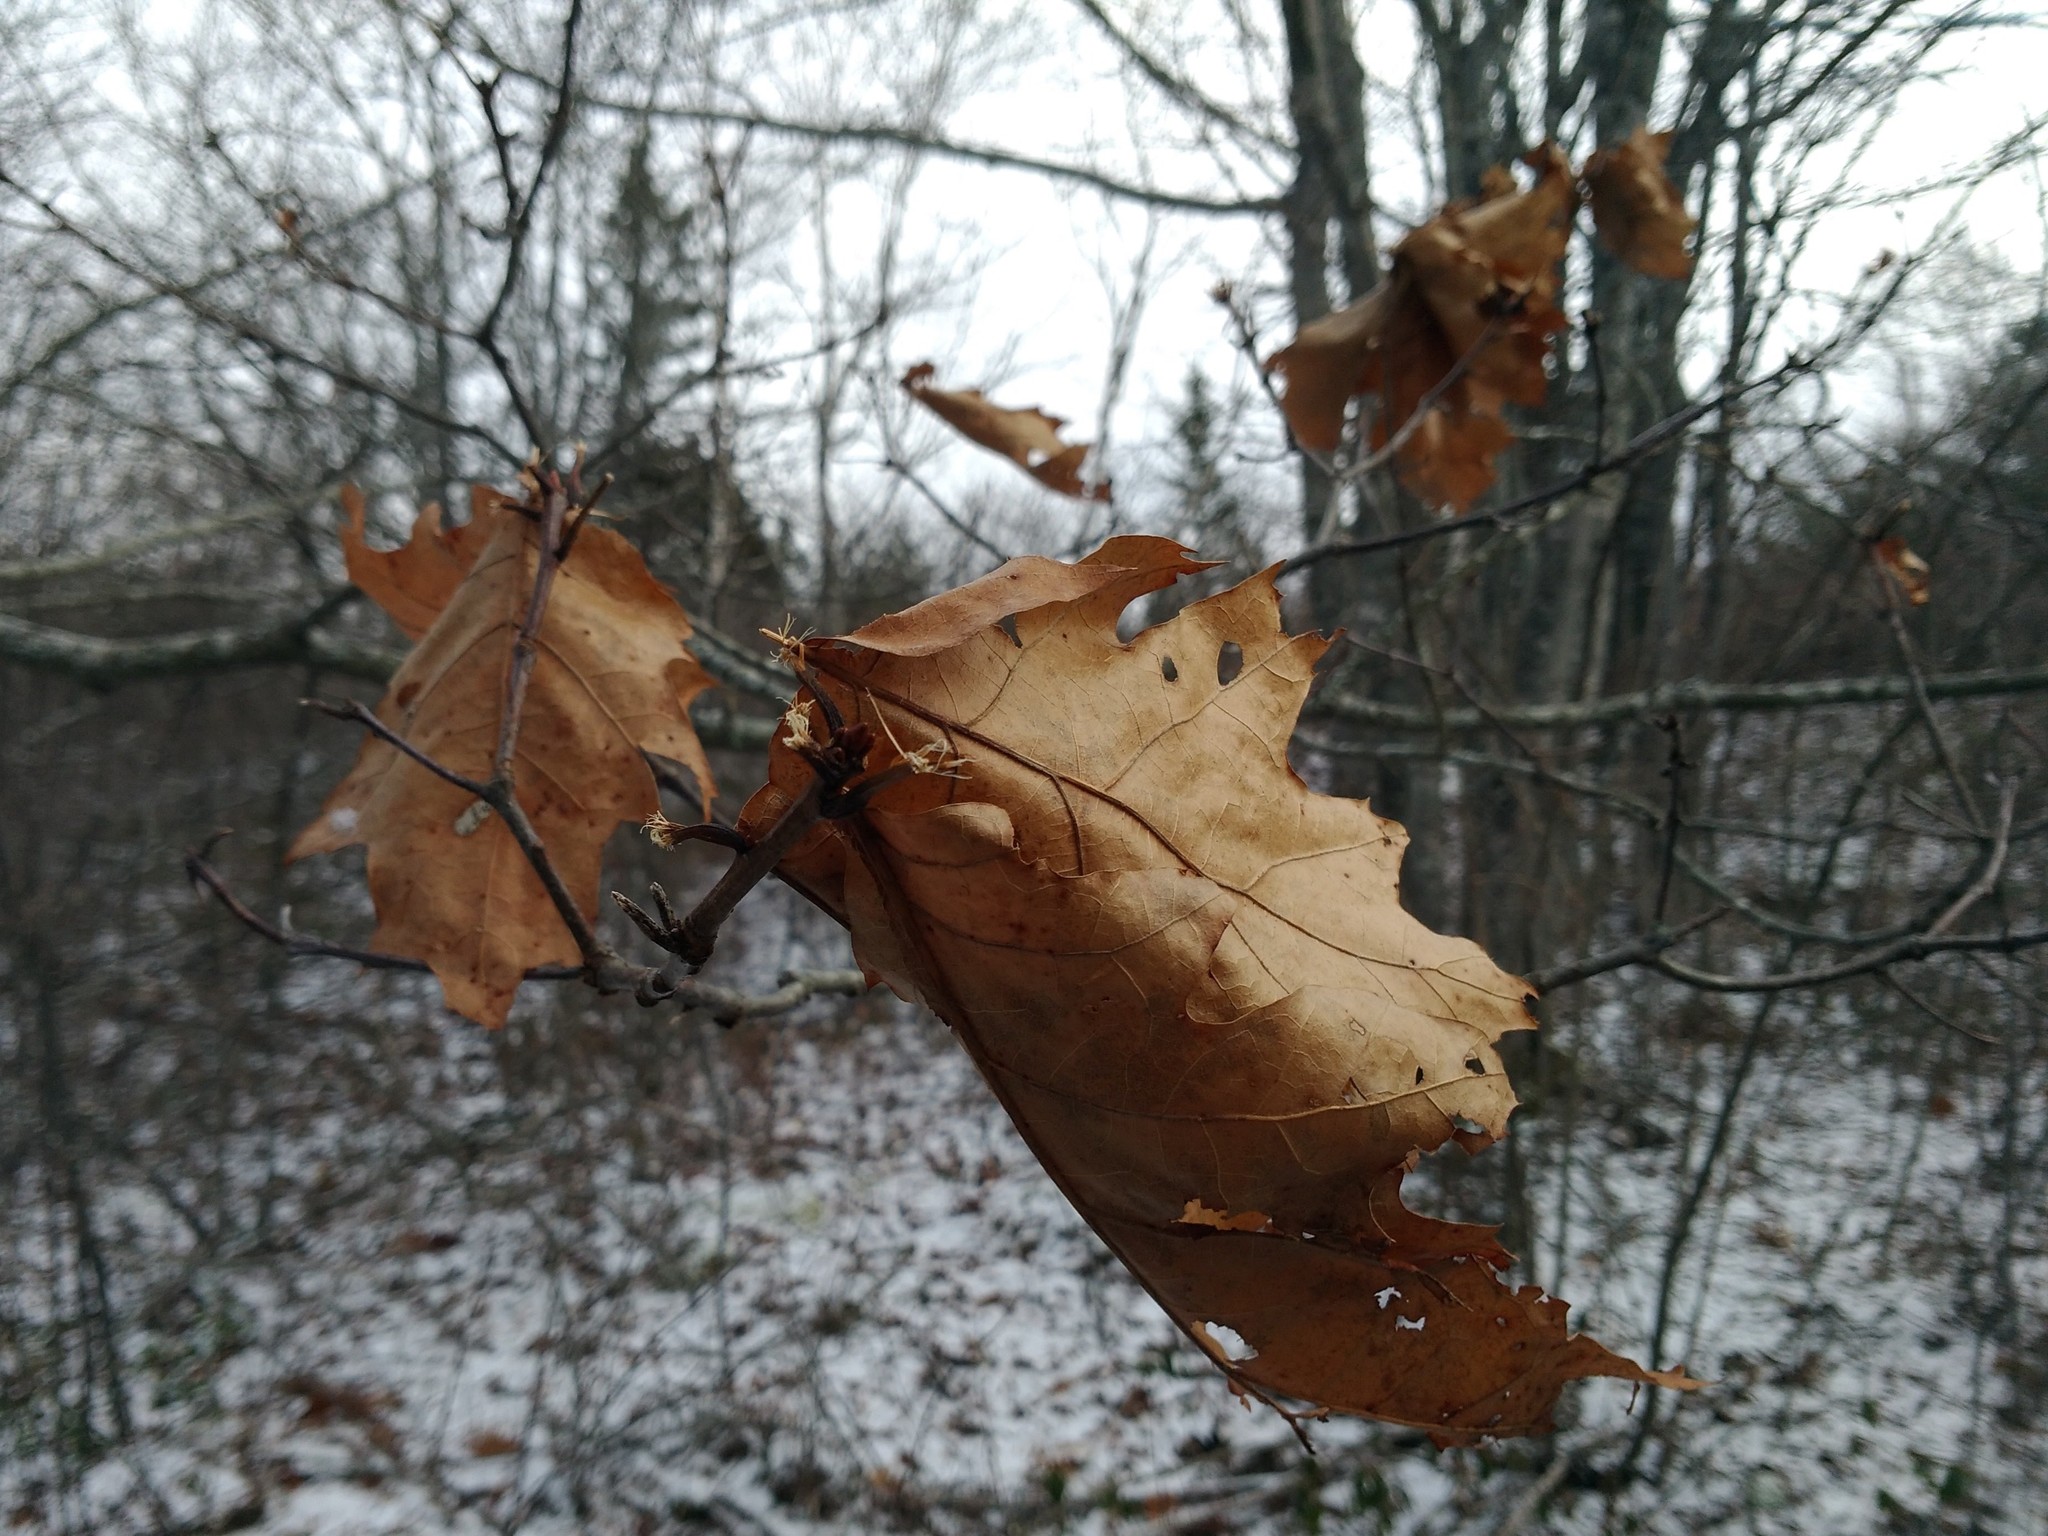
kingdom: Plantae
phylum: Tracheophyta
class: Magnoliopsida
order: Fagales
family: Fagaceae
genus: Quercus
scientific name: Quercus rubra
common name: Red oak
